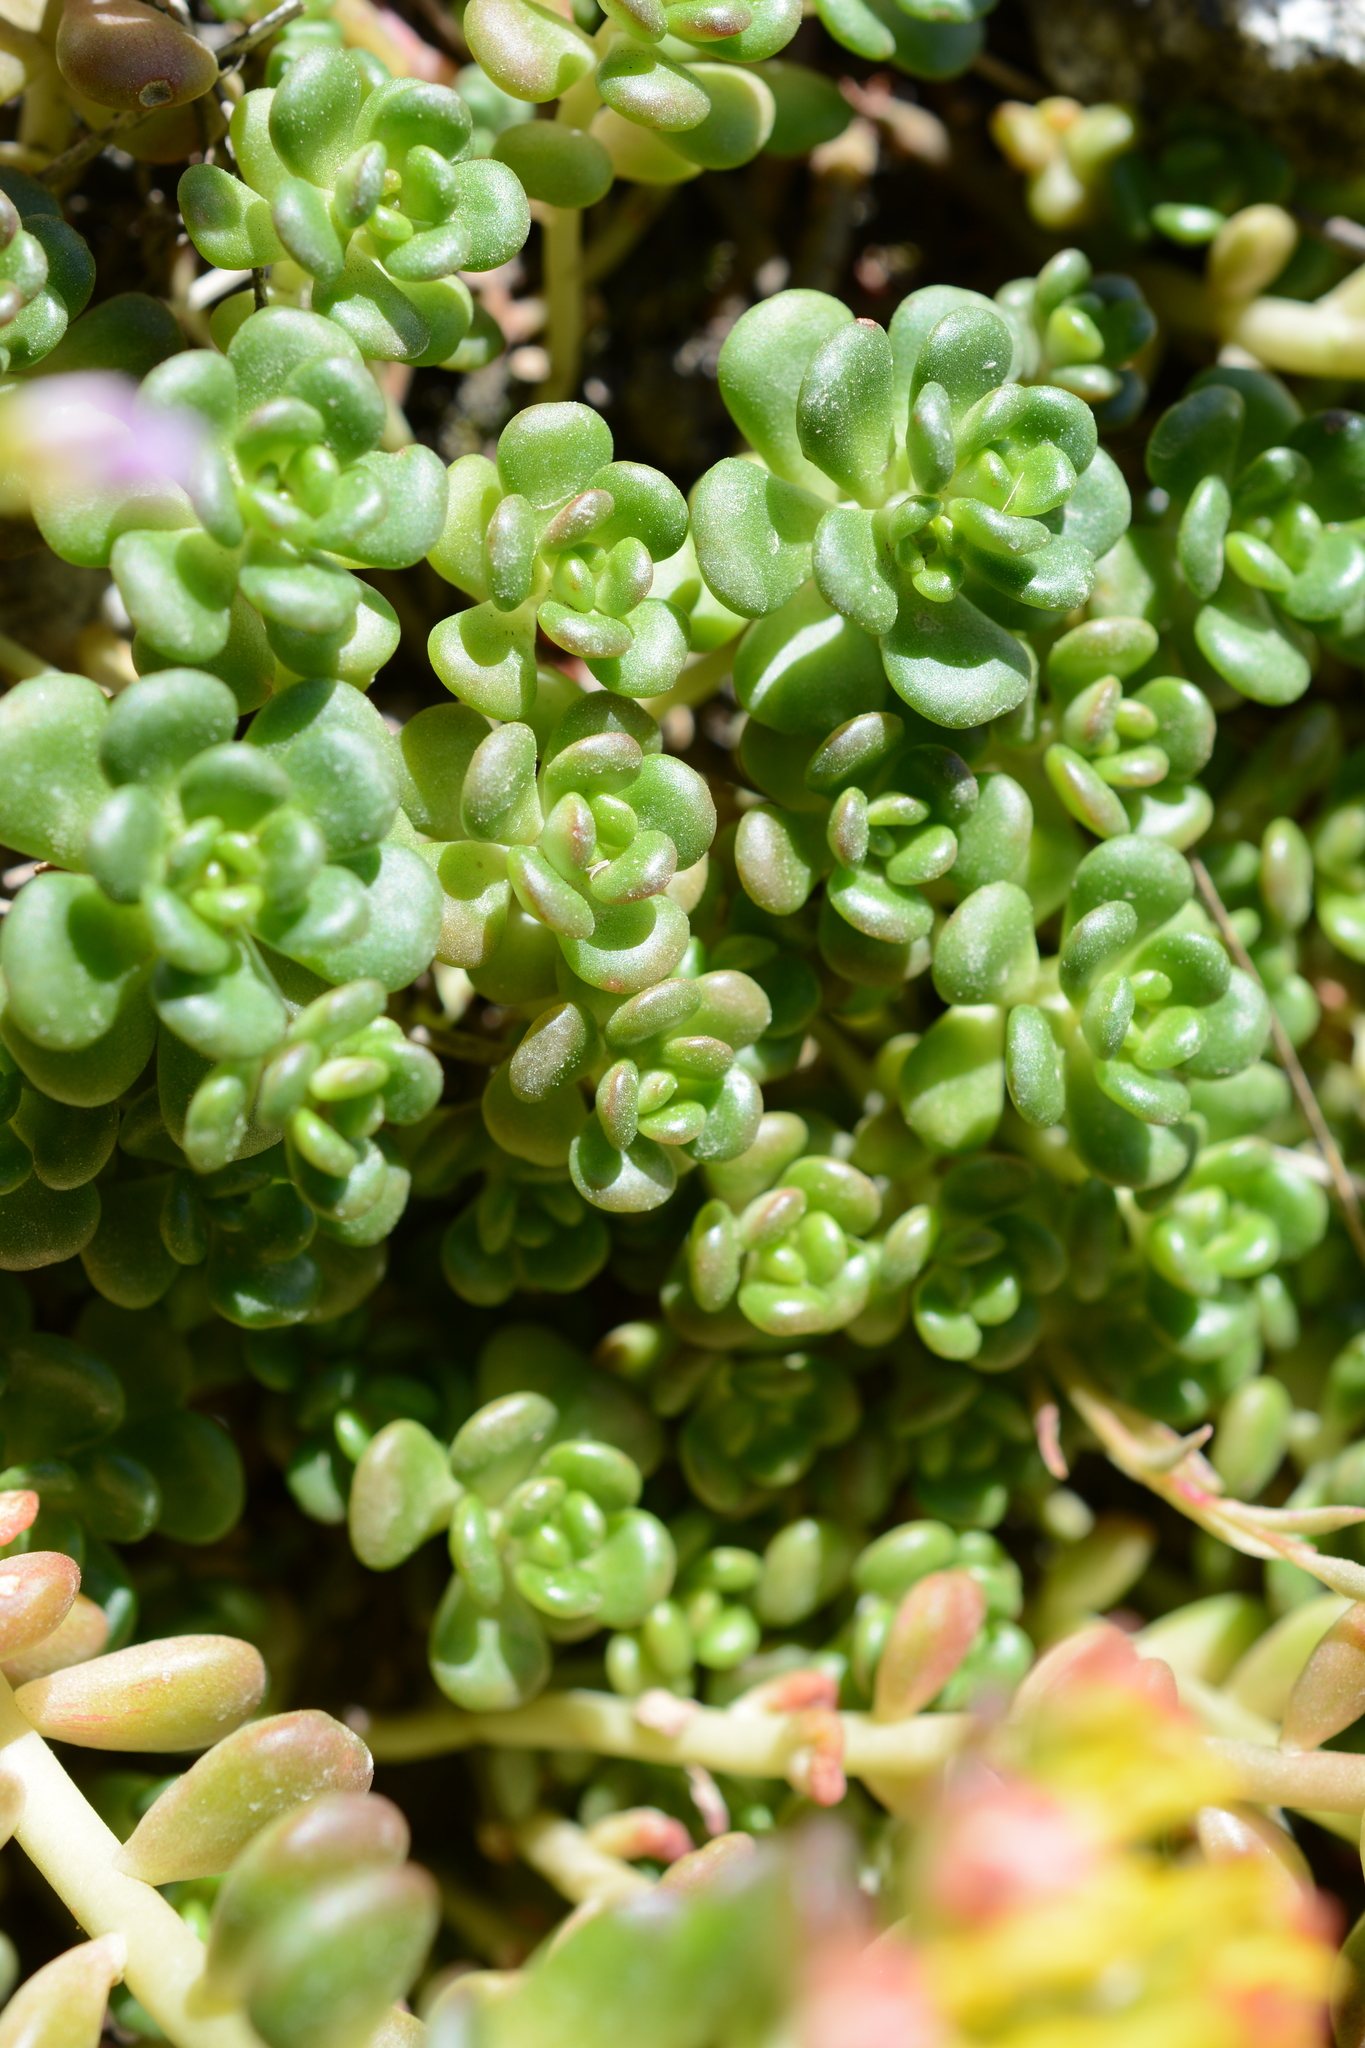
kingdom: Plantae
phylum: Tracheophyta
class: Magnoliopsida
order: Saxifragales
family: Crassulaceae
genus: Sedum
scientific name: Sedum oreganum
